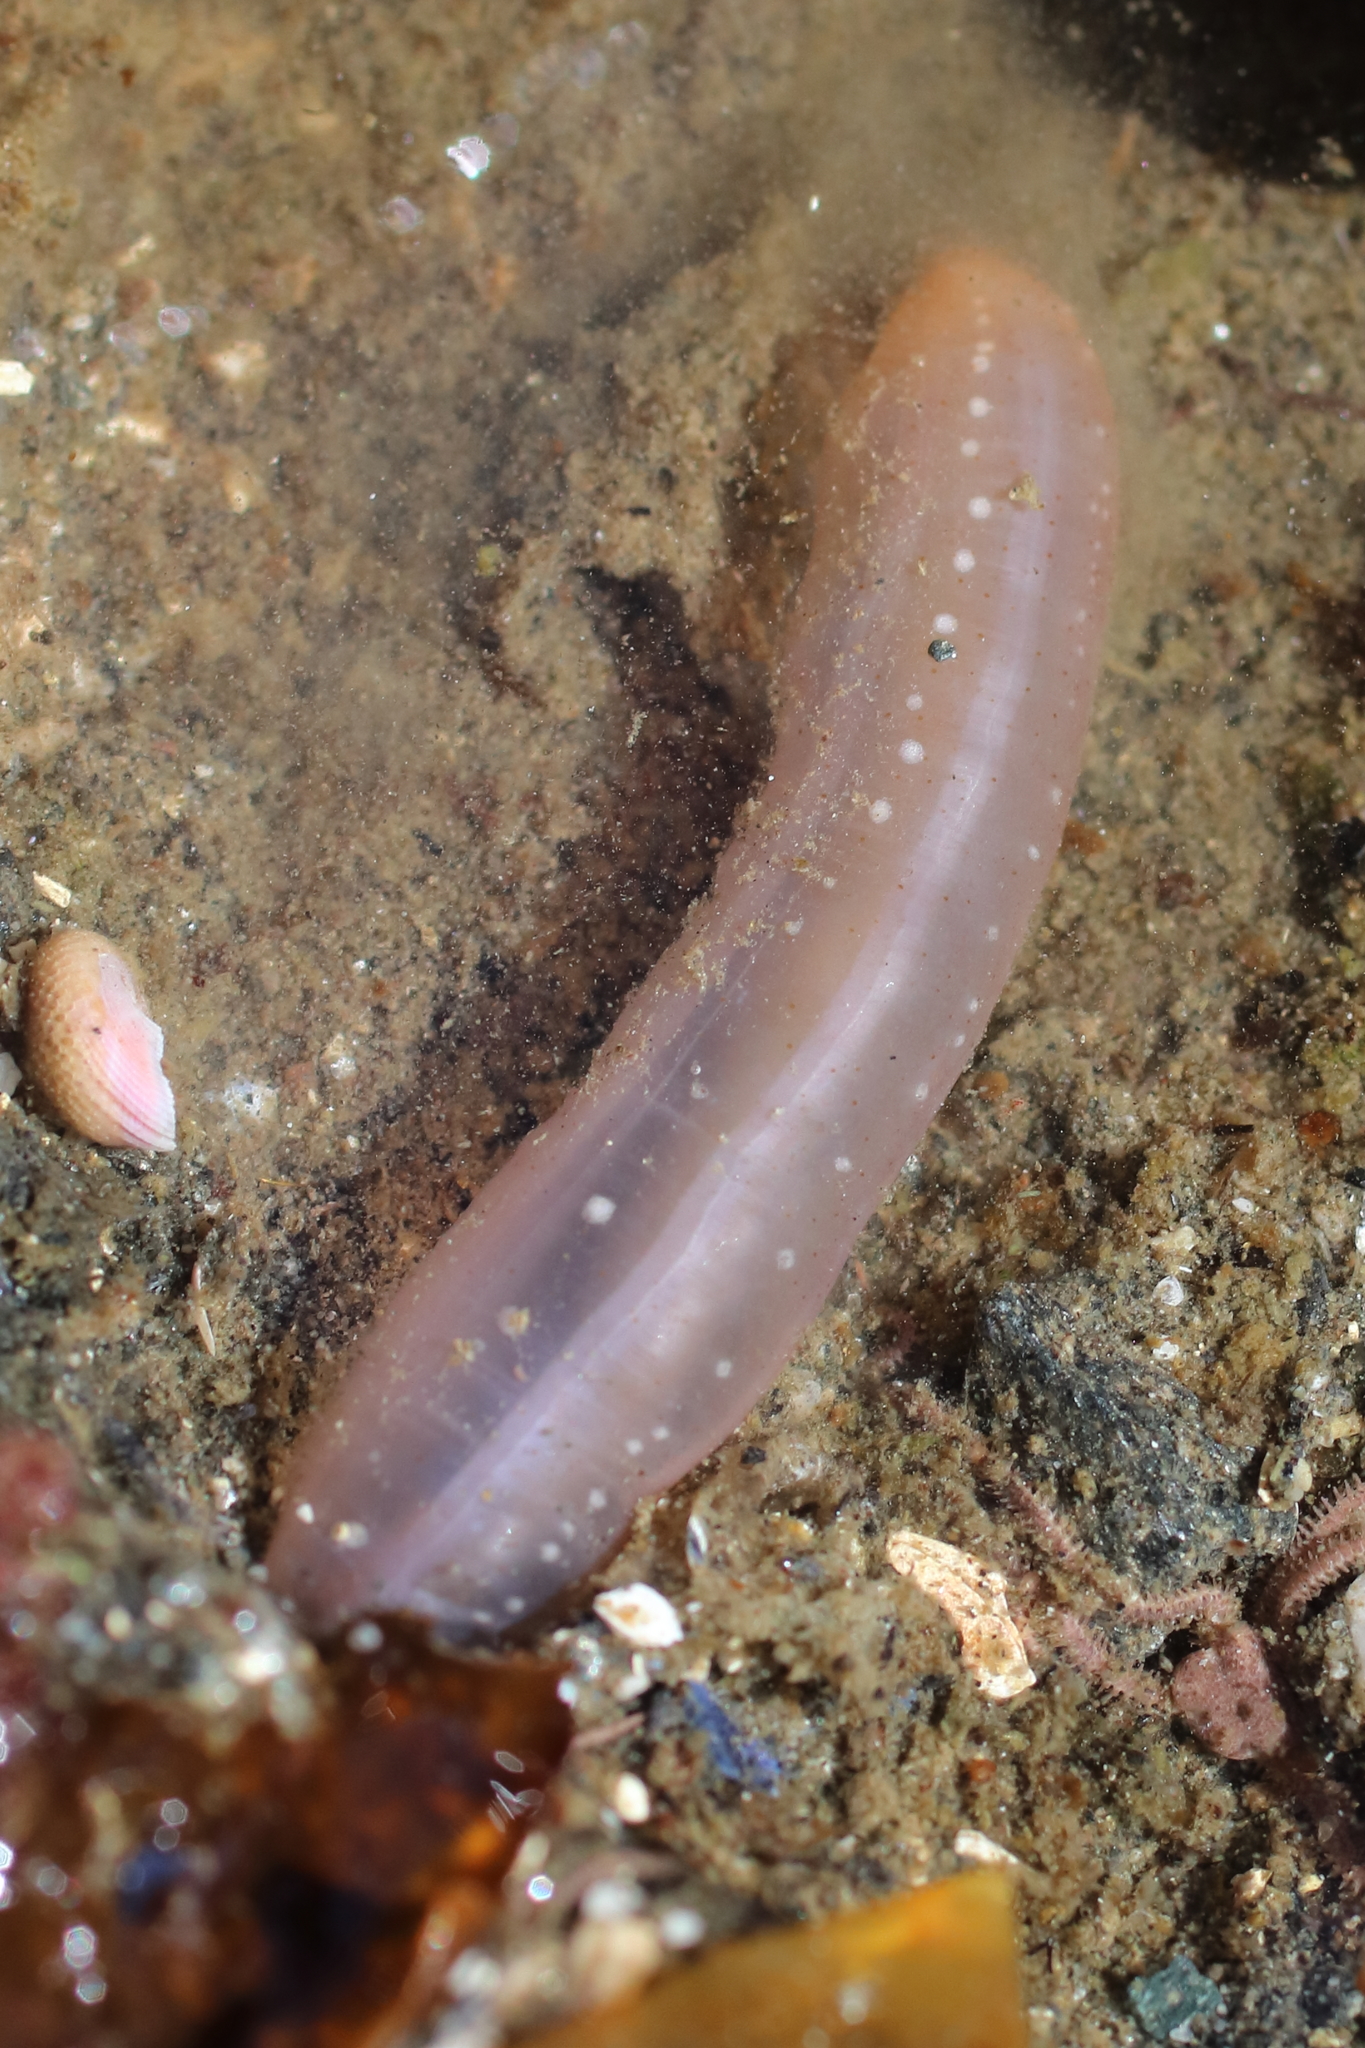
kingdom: Animalia
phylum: Echinodermata
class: Holothuroidea
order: Apodida
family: Chiridotidae
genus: Chiridota
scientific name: Chiridota discolor
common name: Jellybean footless sea cucumber
